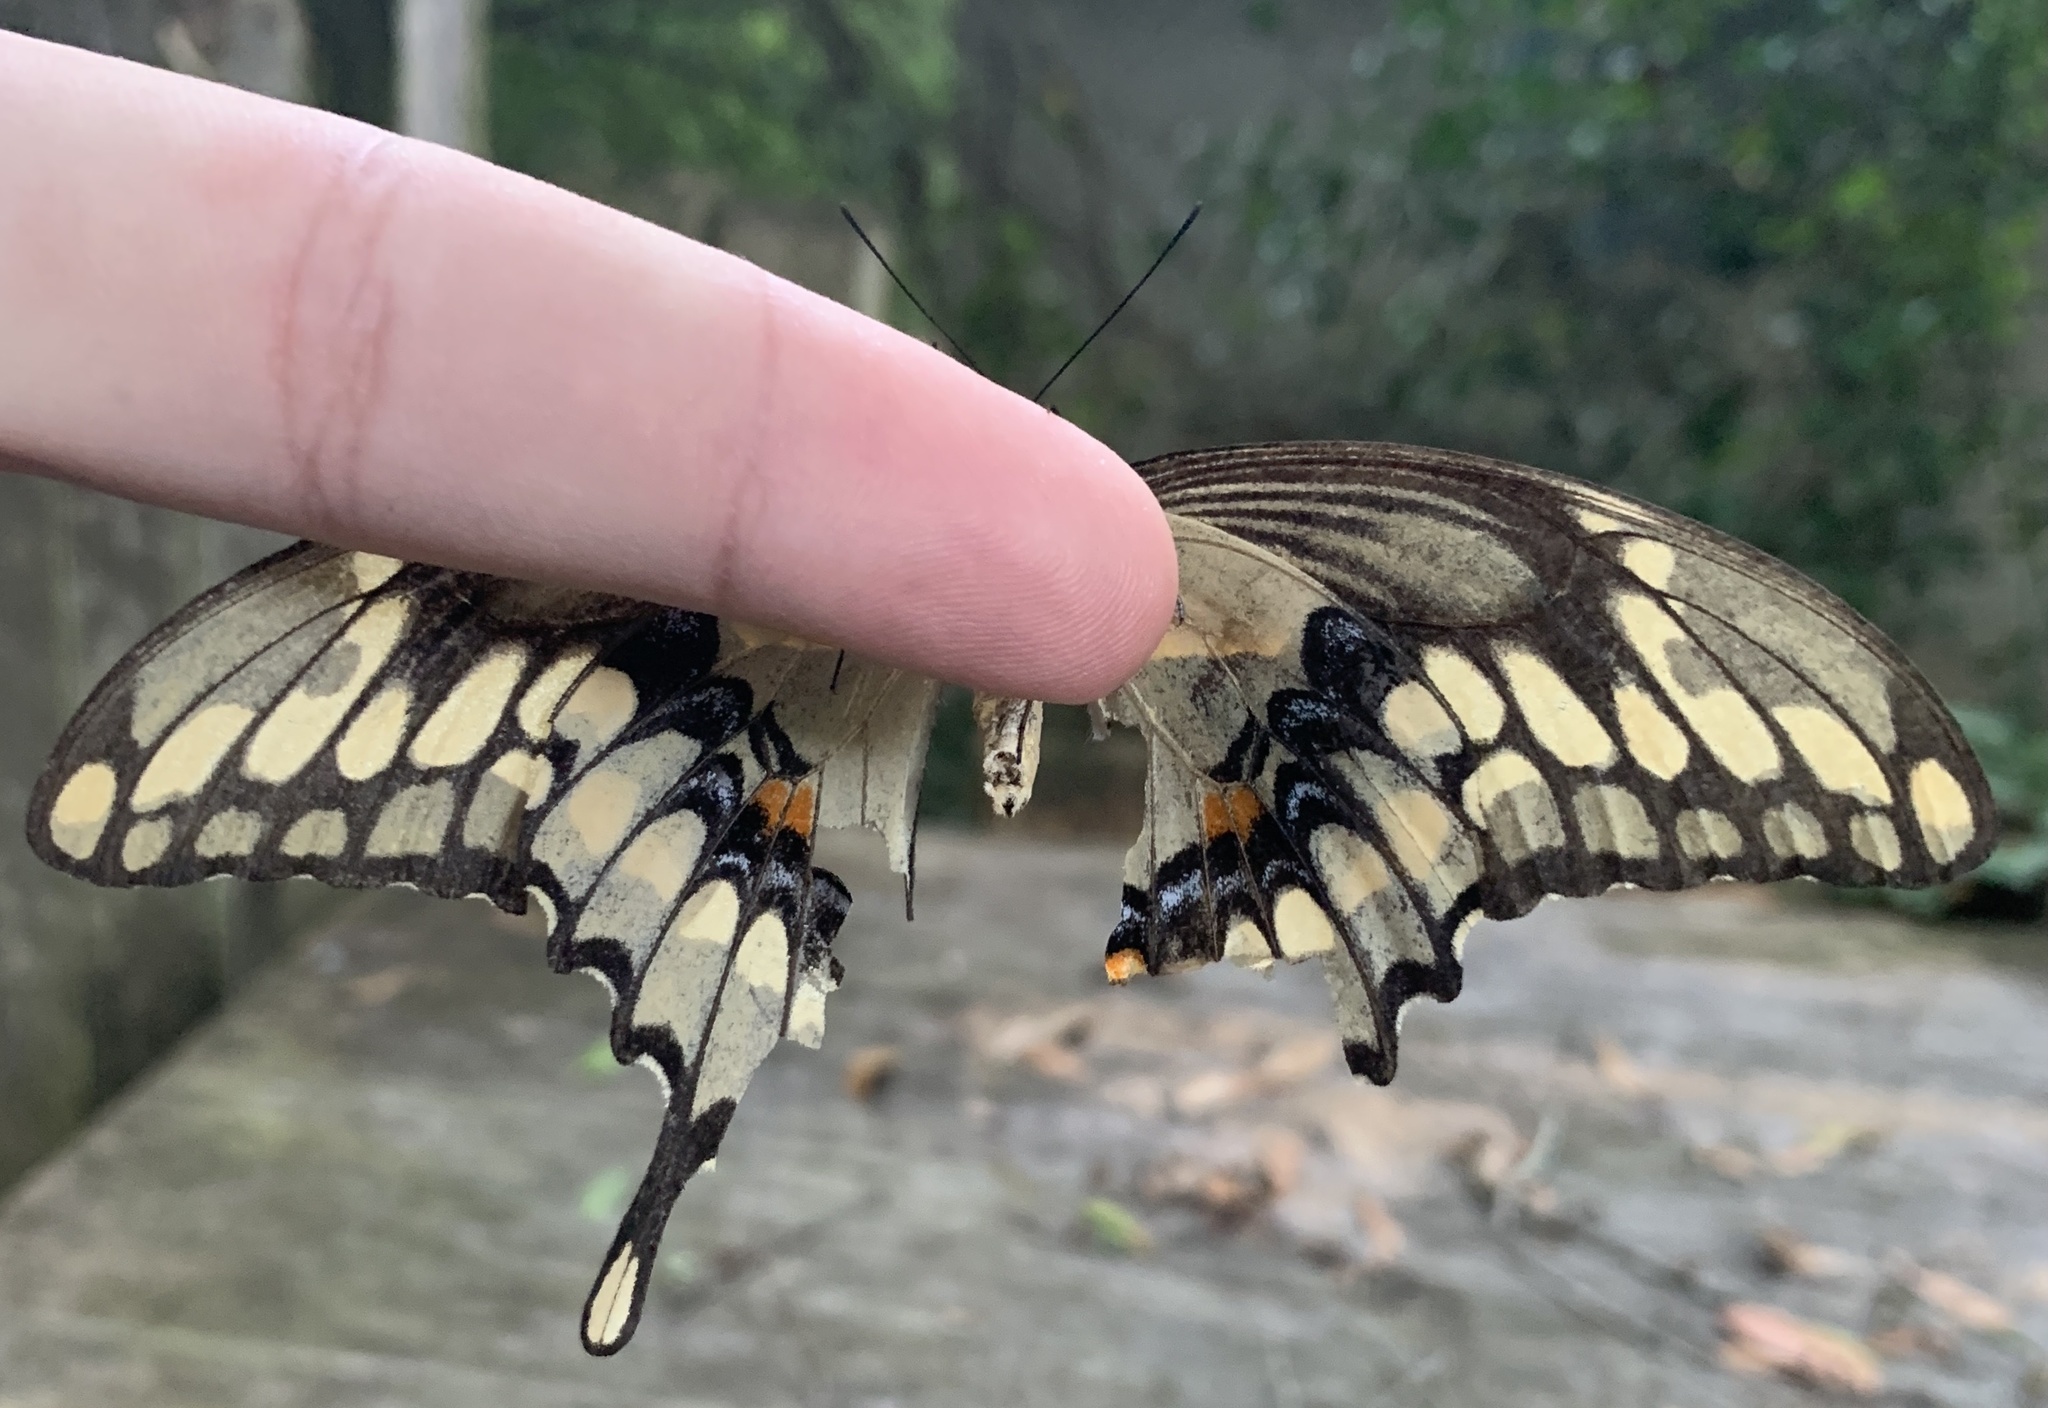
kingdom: Animalia
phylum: Arthropoda
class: Insecta
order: Lepidoptera
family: Papilionidae
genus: Papilio
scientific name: Papilio cresphontes
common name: Giant swallowtail
